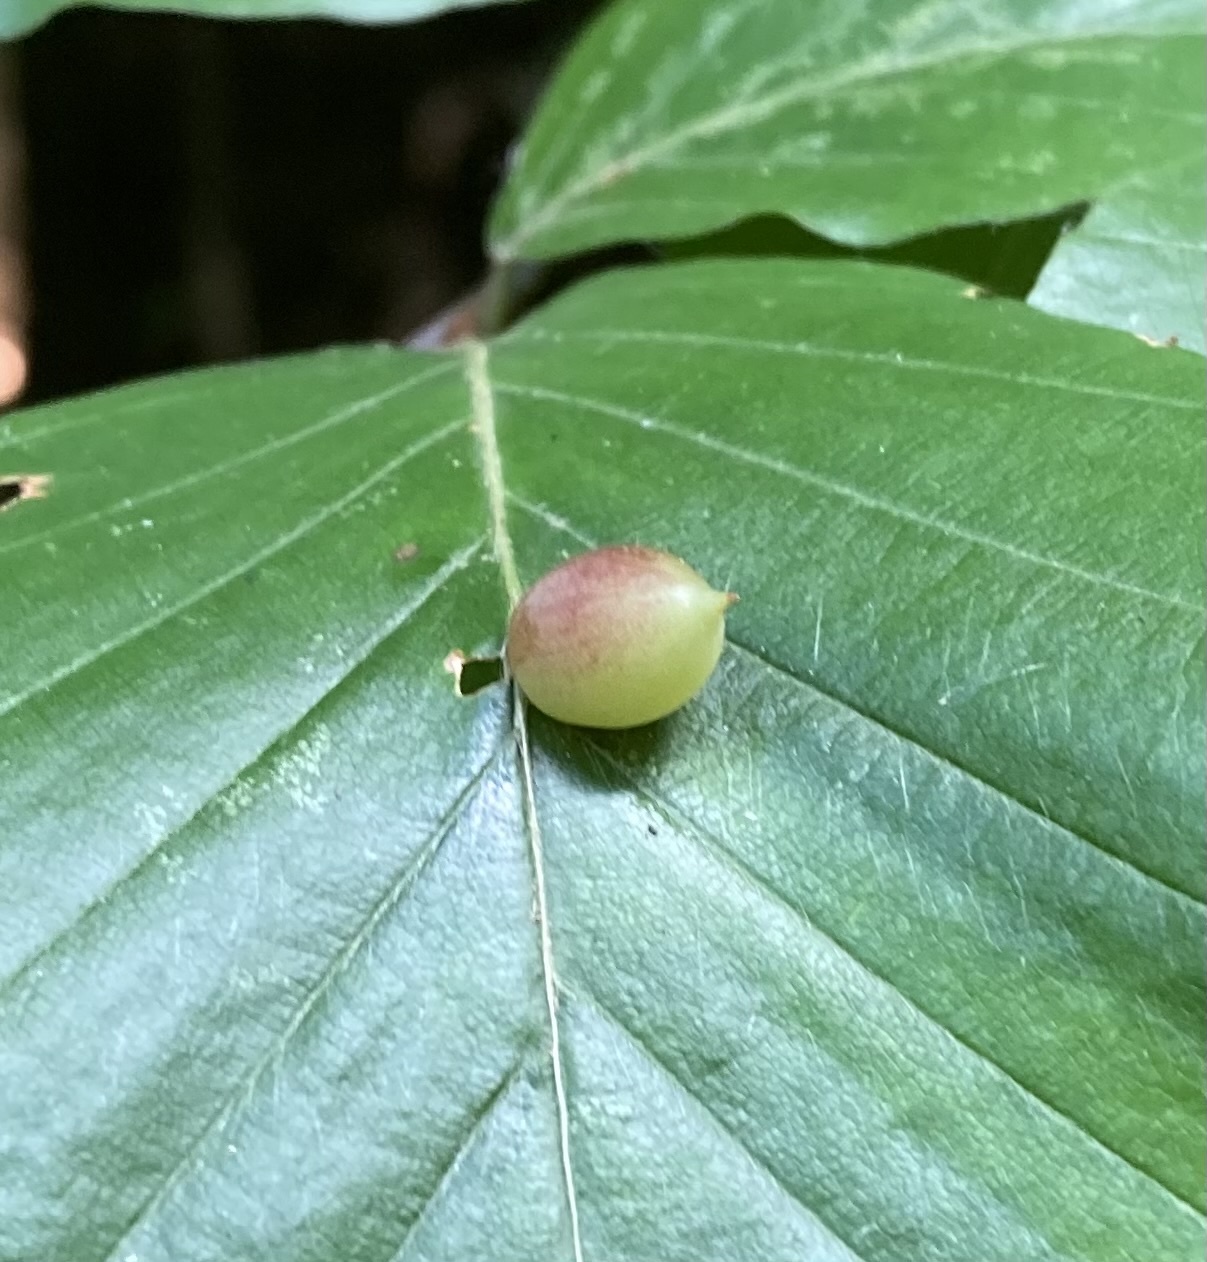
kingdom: Animalia
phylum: Arthropoda
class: Insecta
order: Diptera
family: Cecidomyiidae
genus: Mikiola
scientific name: Mikiola fagi
